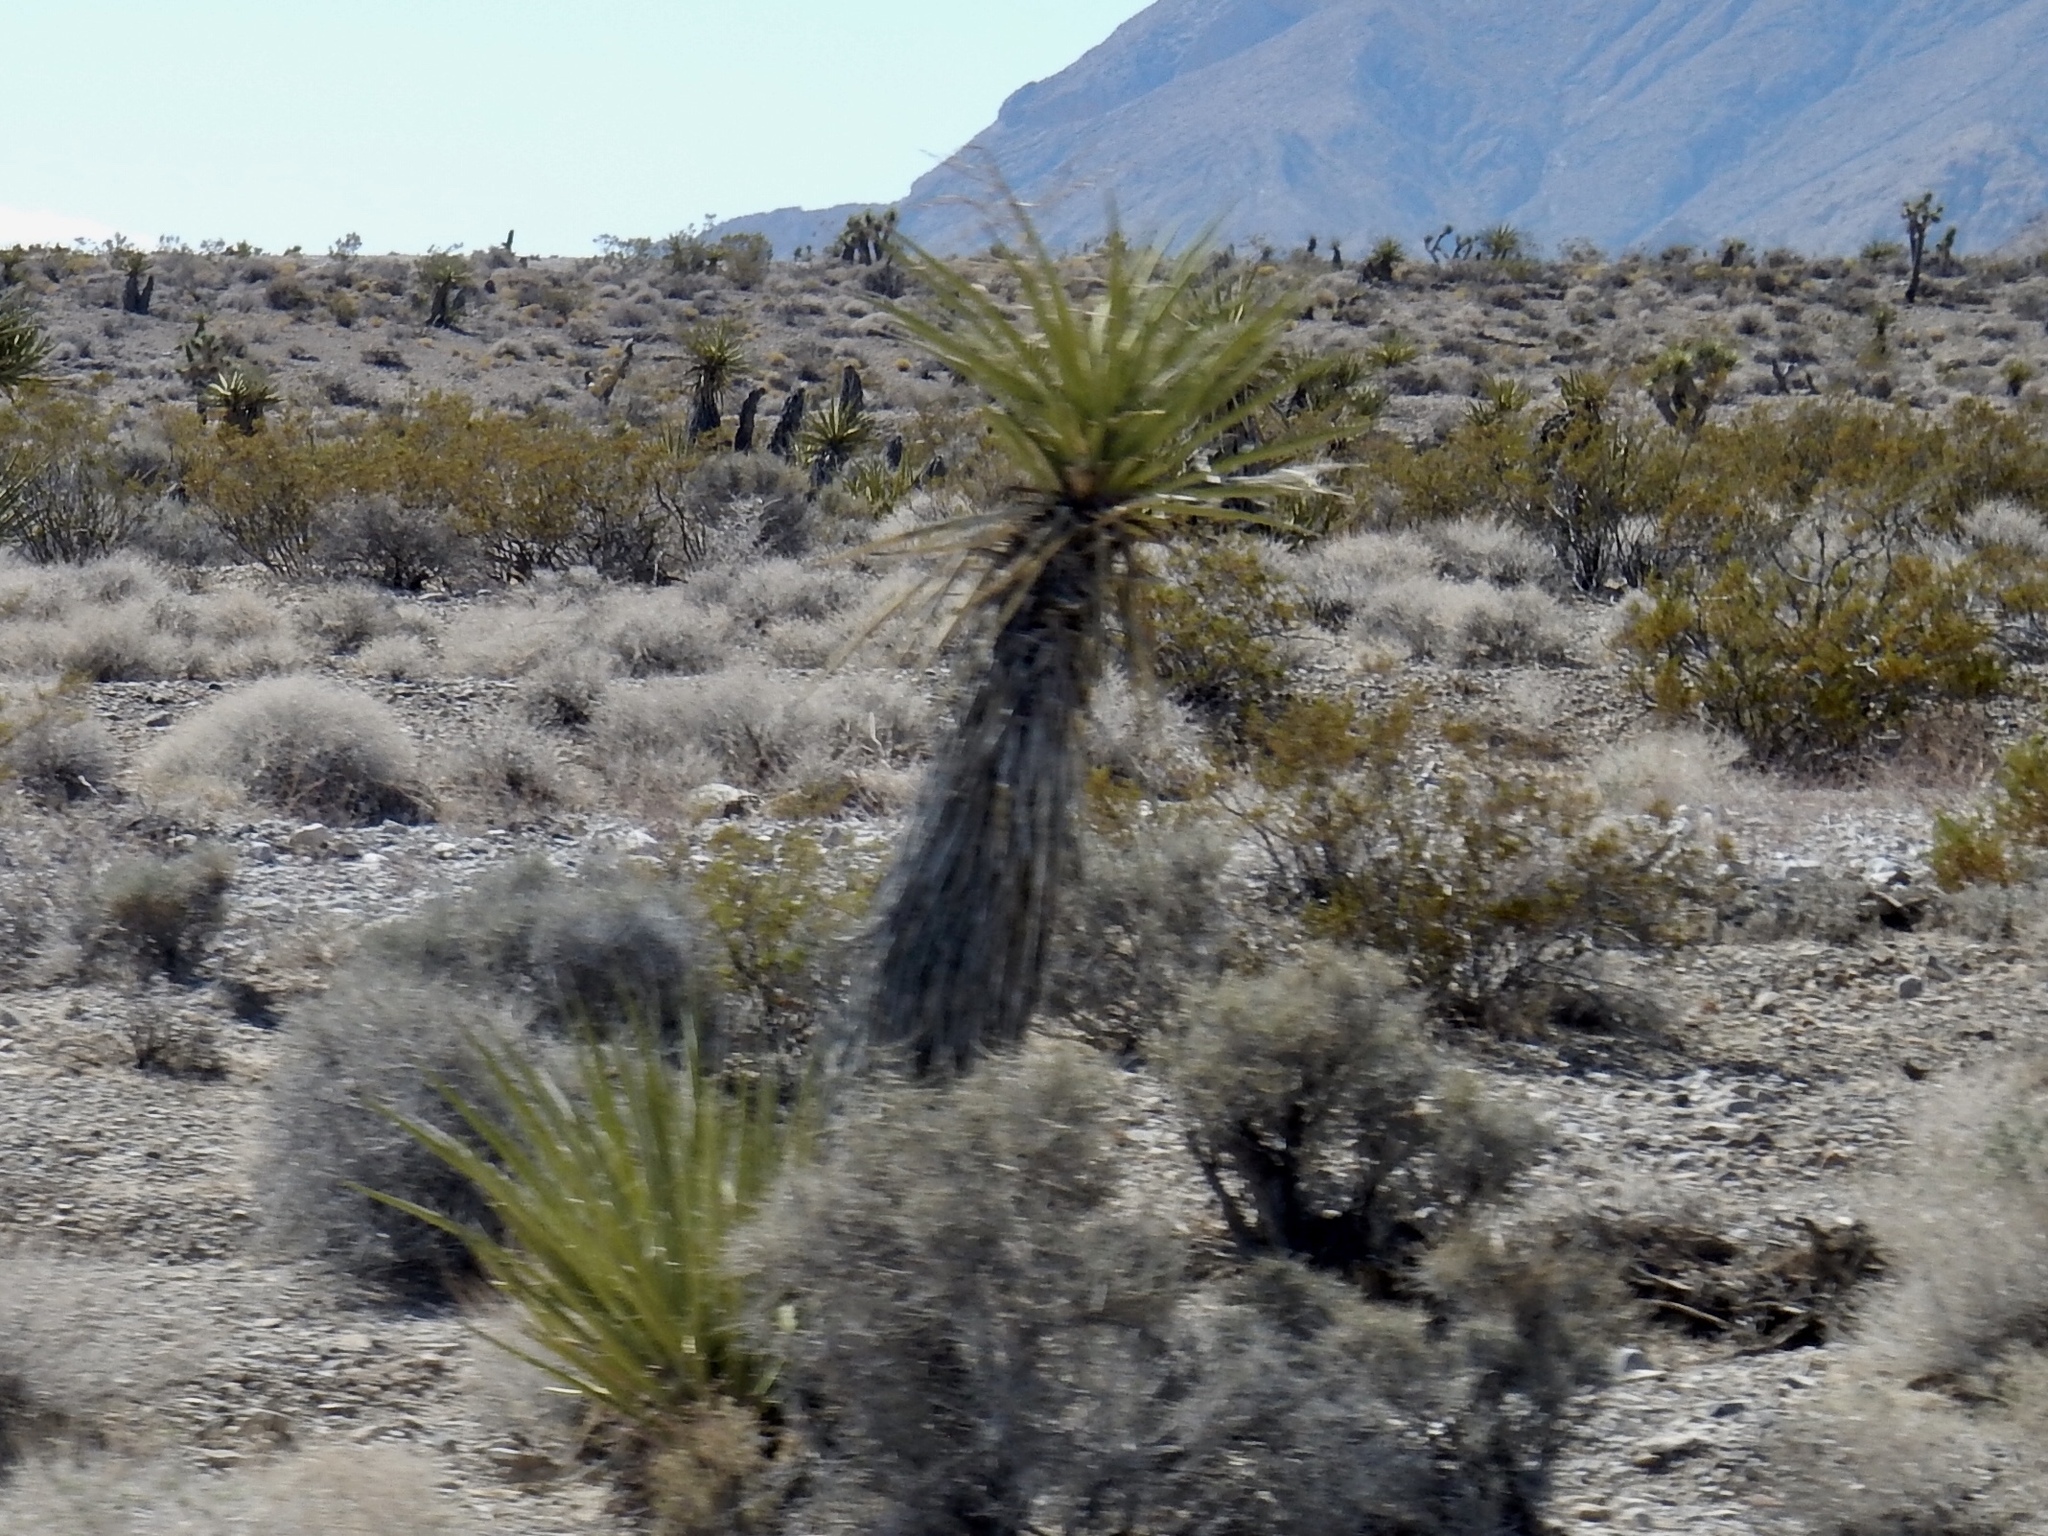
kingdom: Plantae
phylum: Tracheophyta
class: Liliopsida
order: Asparagales
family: Asparagaceae
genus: Yucca
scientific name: Yucca schidigera
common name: Mojave yucca
